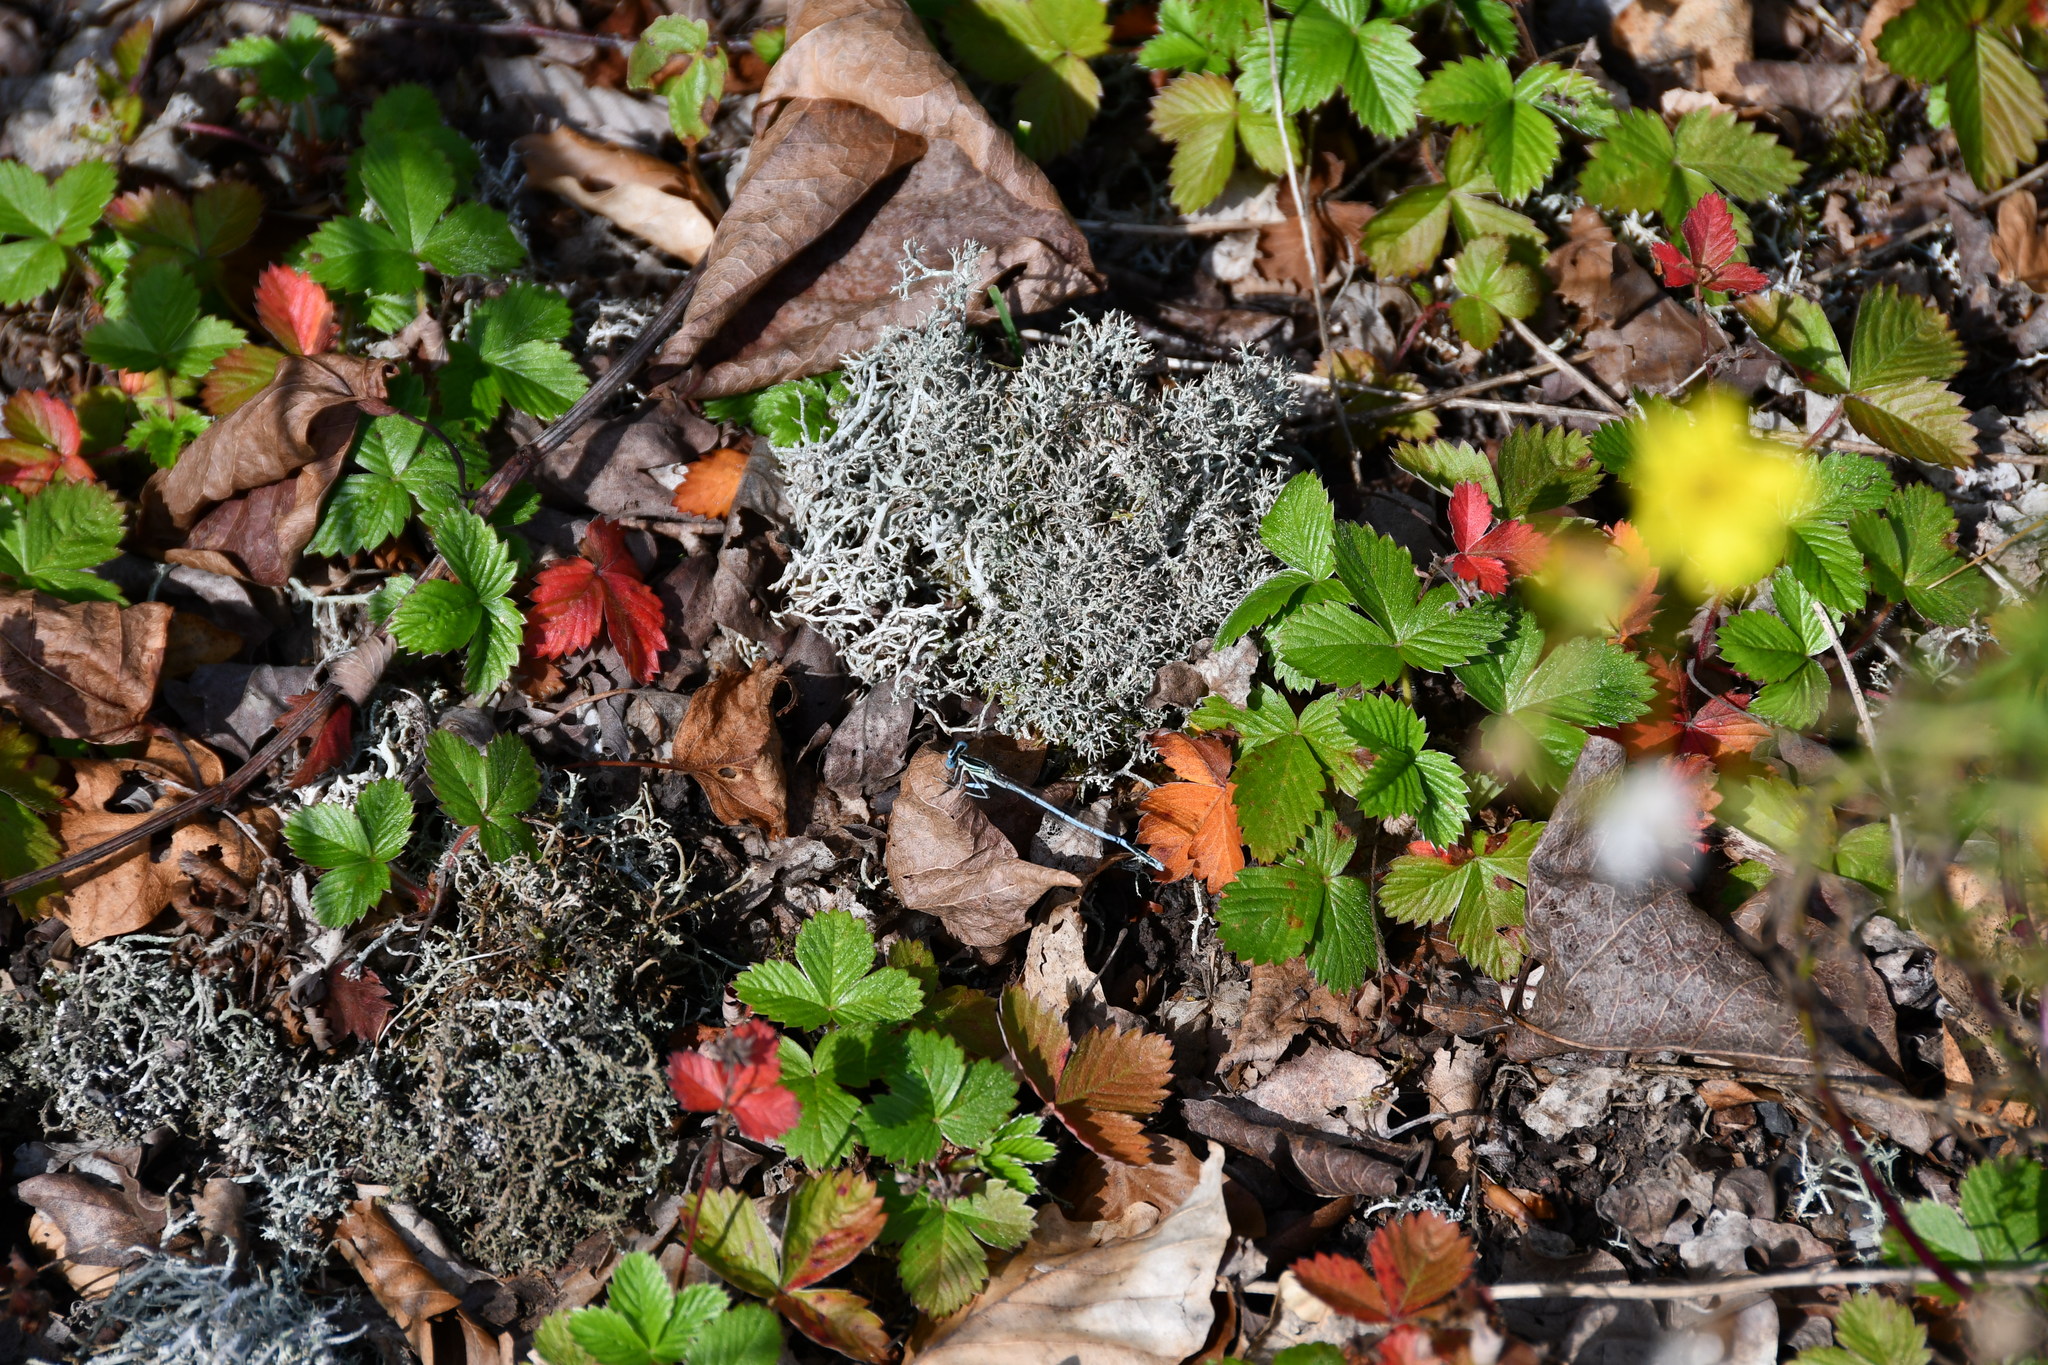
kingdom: Animalia
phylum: Arthropoda
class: Insecta
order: Odonata
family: Platycnemididae
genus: Platycnemis
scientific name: Platycnemis pennipes
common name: White-legged damselfly
